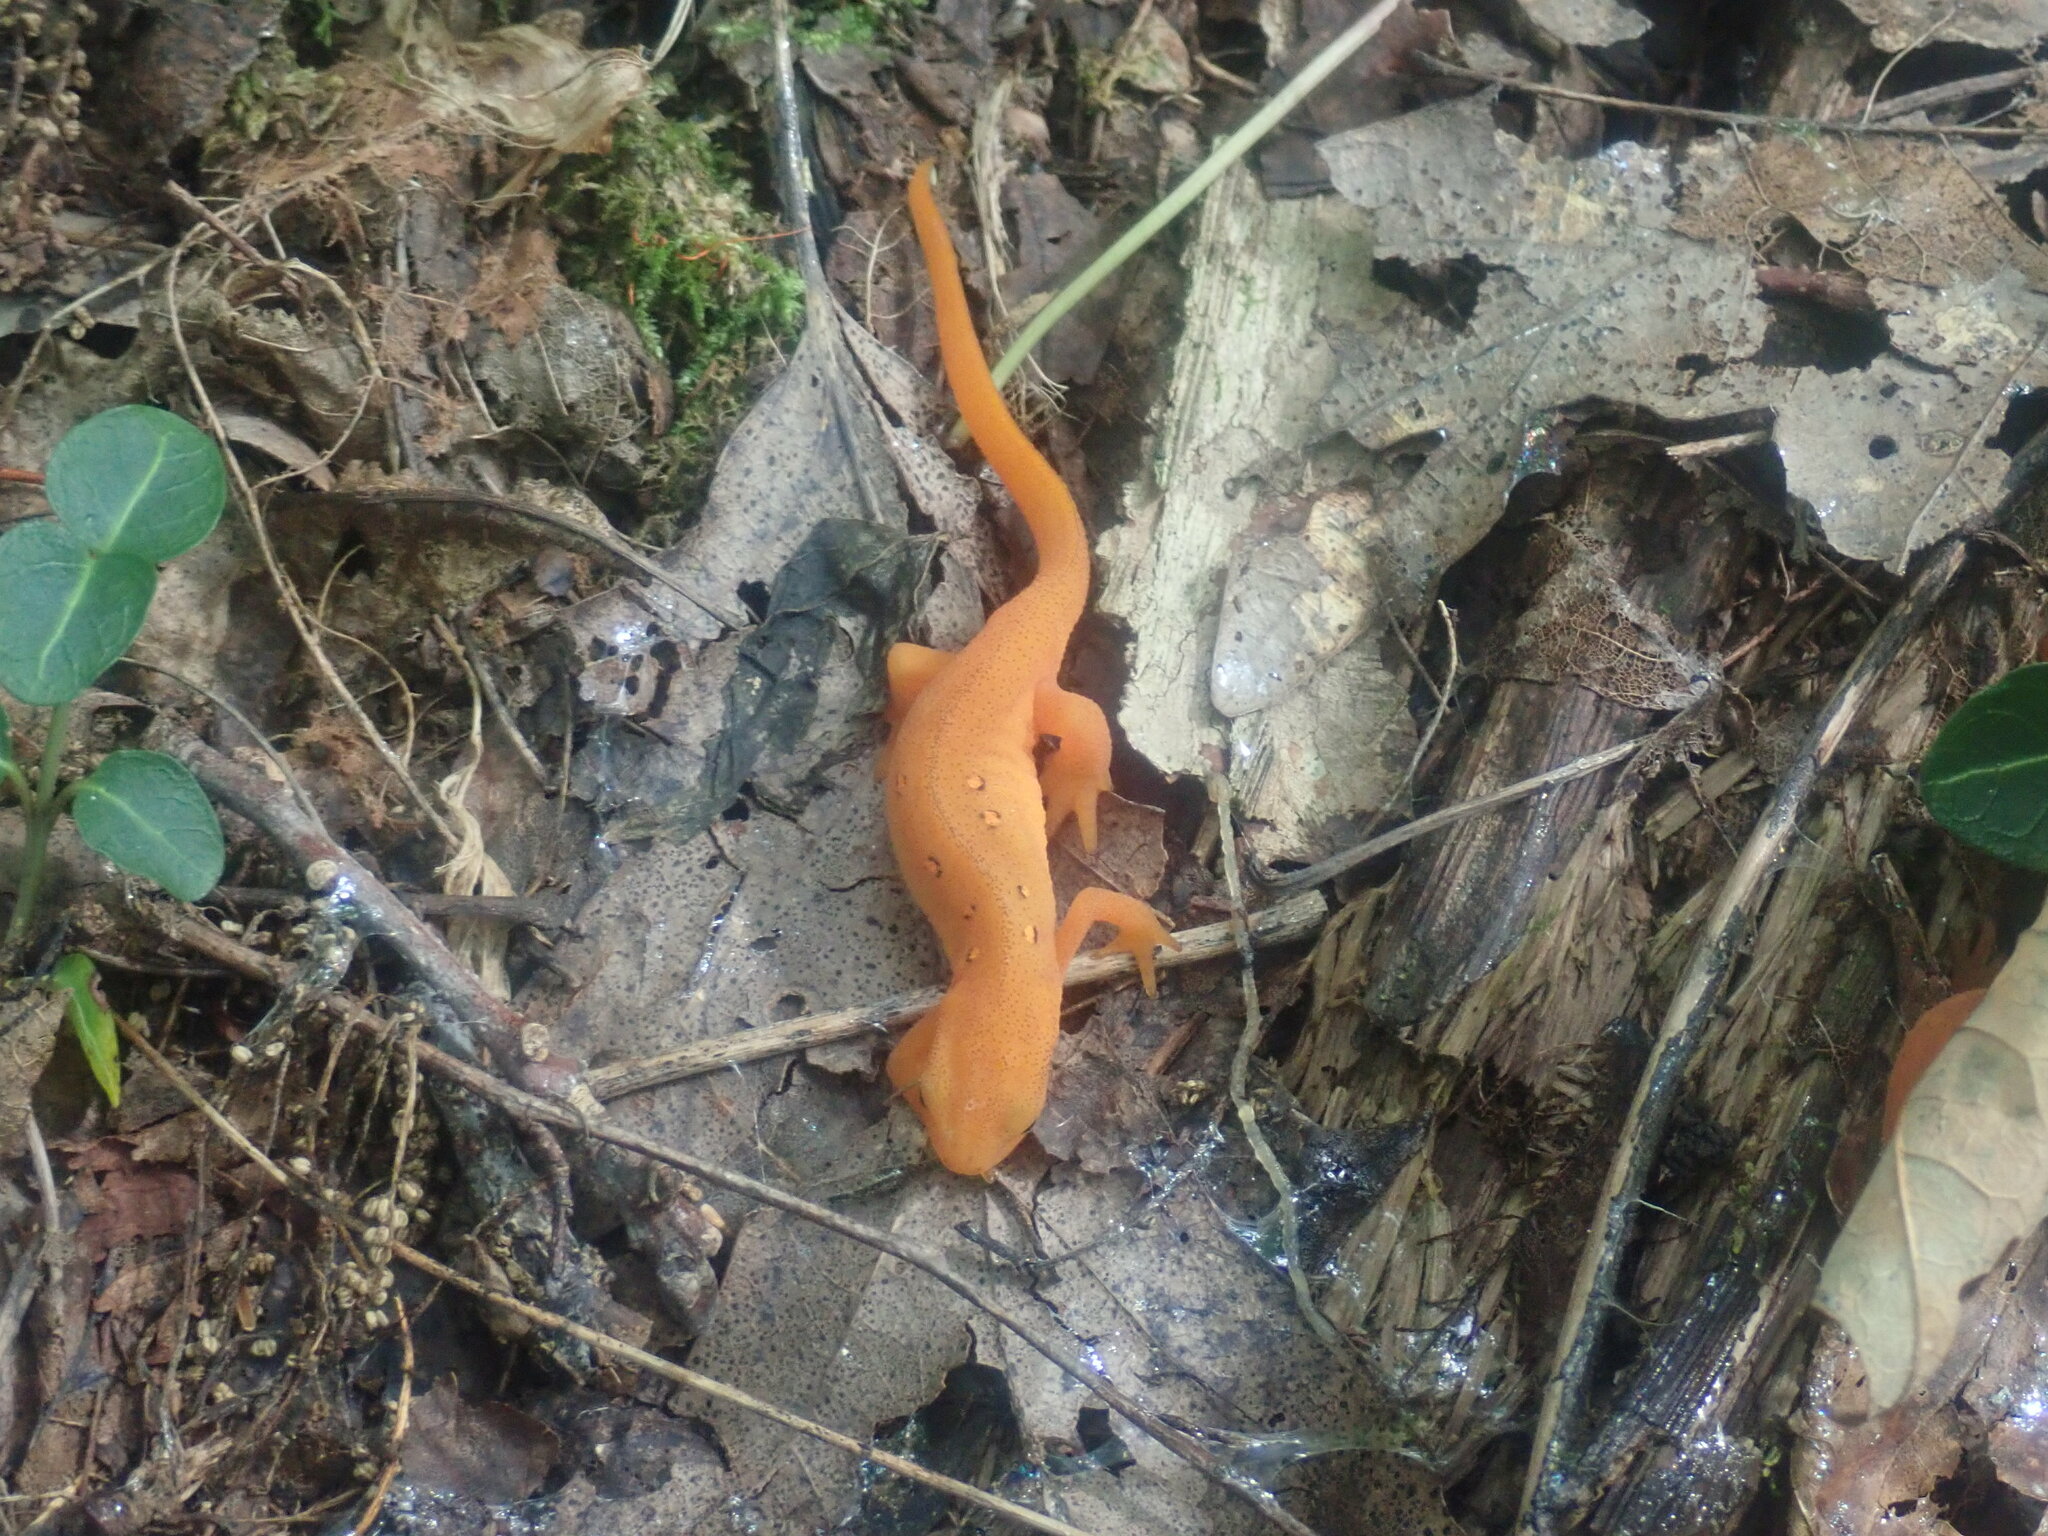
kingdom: Animalia
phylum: Chordata
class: Amphibia
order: Caudata
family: Salamandridae
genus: Notophthalmus
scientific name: Notophthalmus viridescens
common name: Eastern newt
